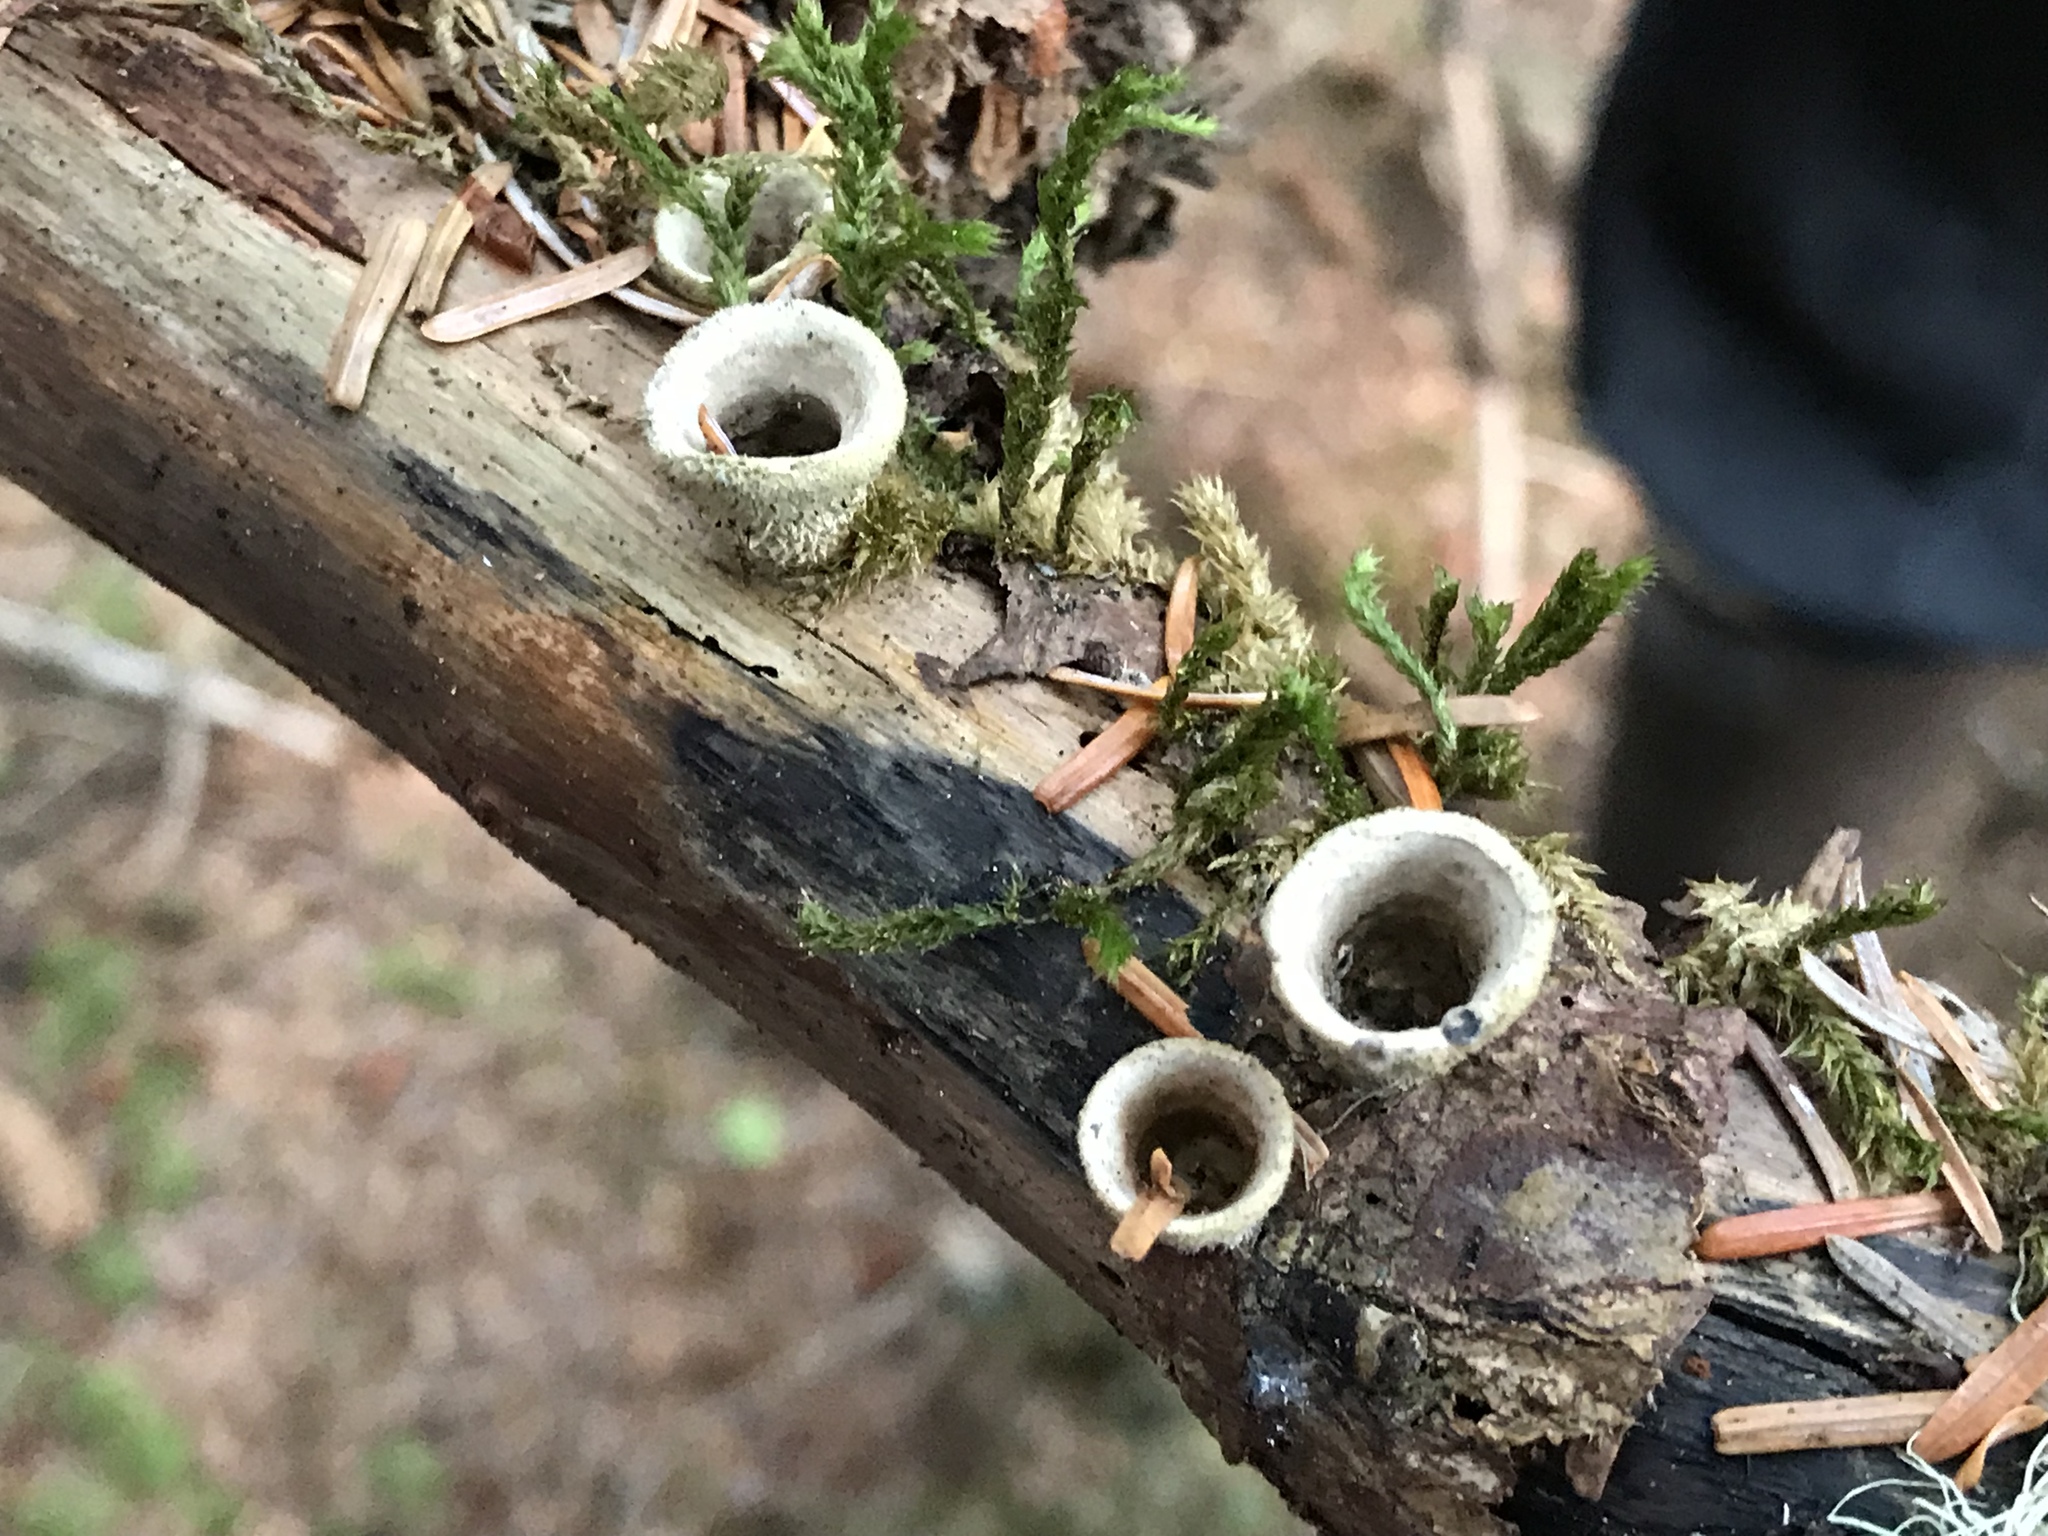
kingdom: Fungi
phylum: Basidiomycota
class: Agaricomycetes
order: Agaricales
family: Agaricaceae
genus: Nidula
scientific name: Nidula niveotomentosa
